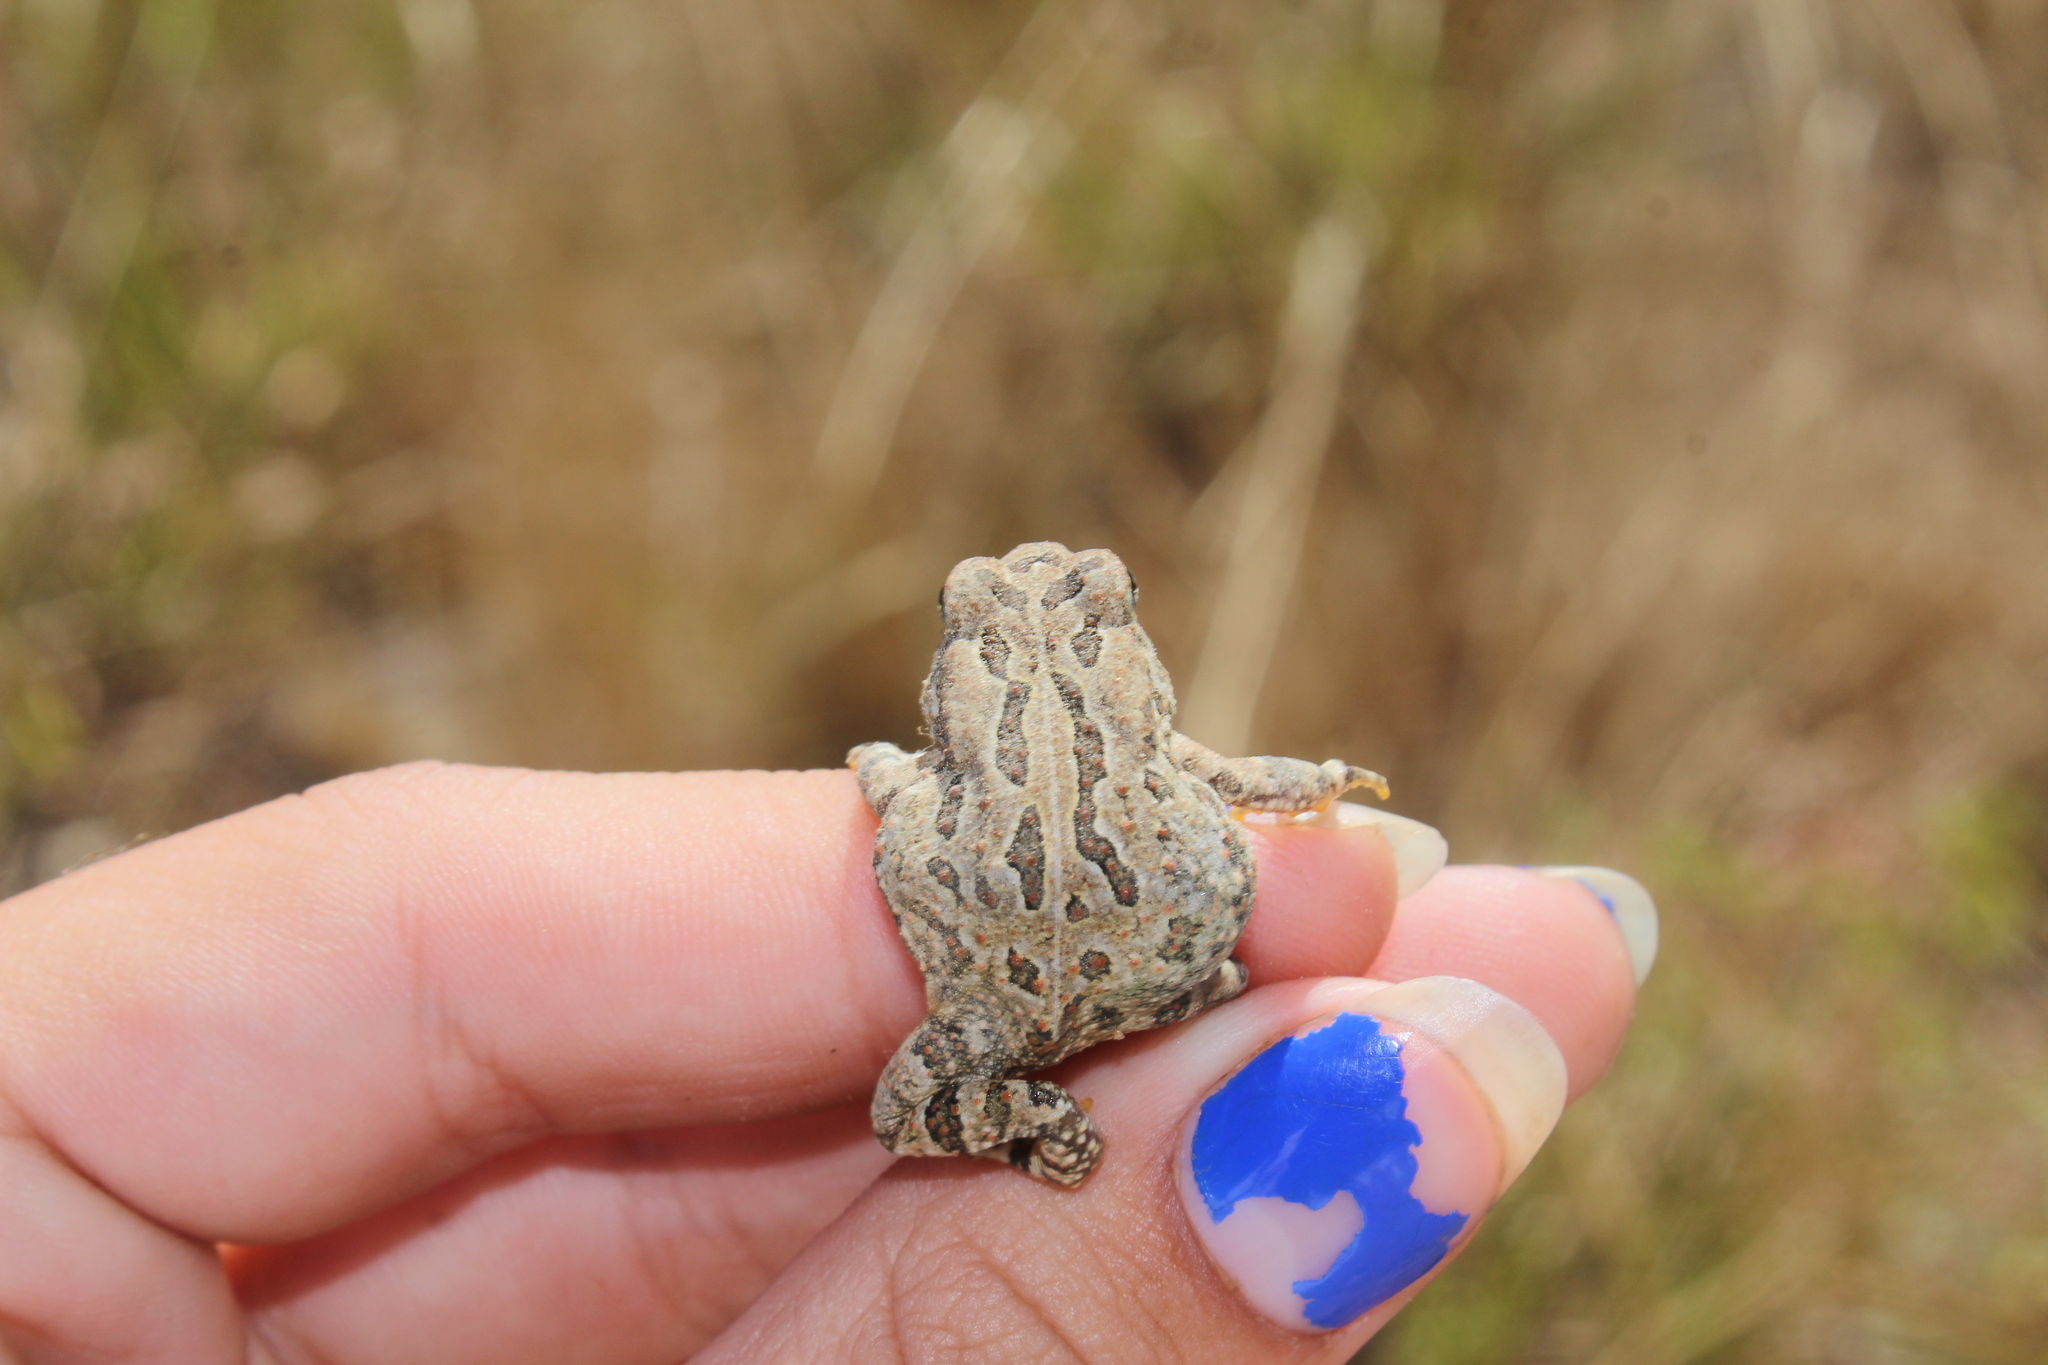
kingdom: Animalia
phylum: Chordata
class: Amphibia
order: Anura
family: Bufonidae
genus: Anaxyrus
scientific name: Anaxyrus fowleri
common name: Fowler's toad
